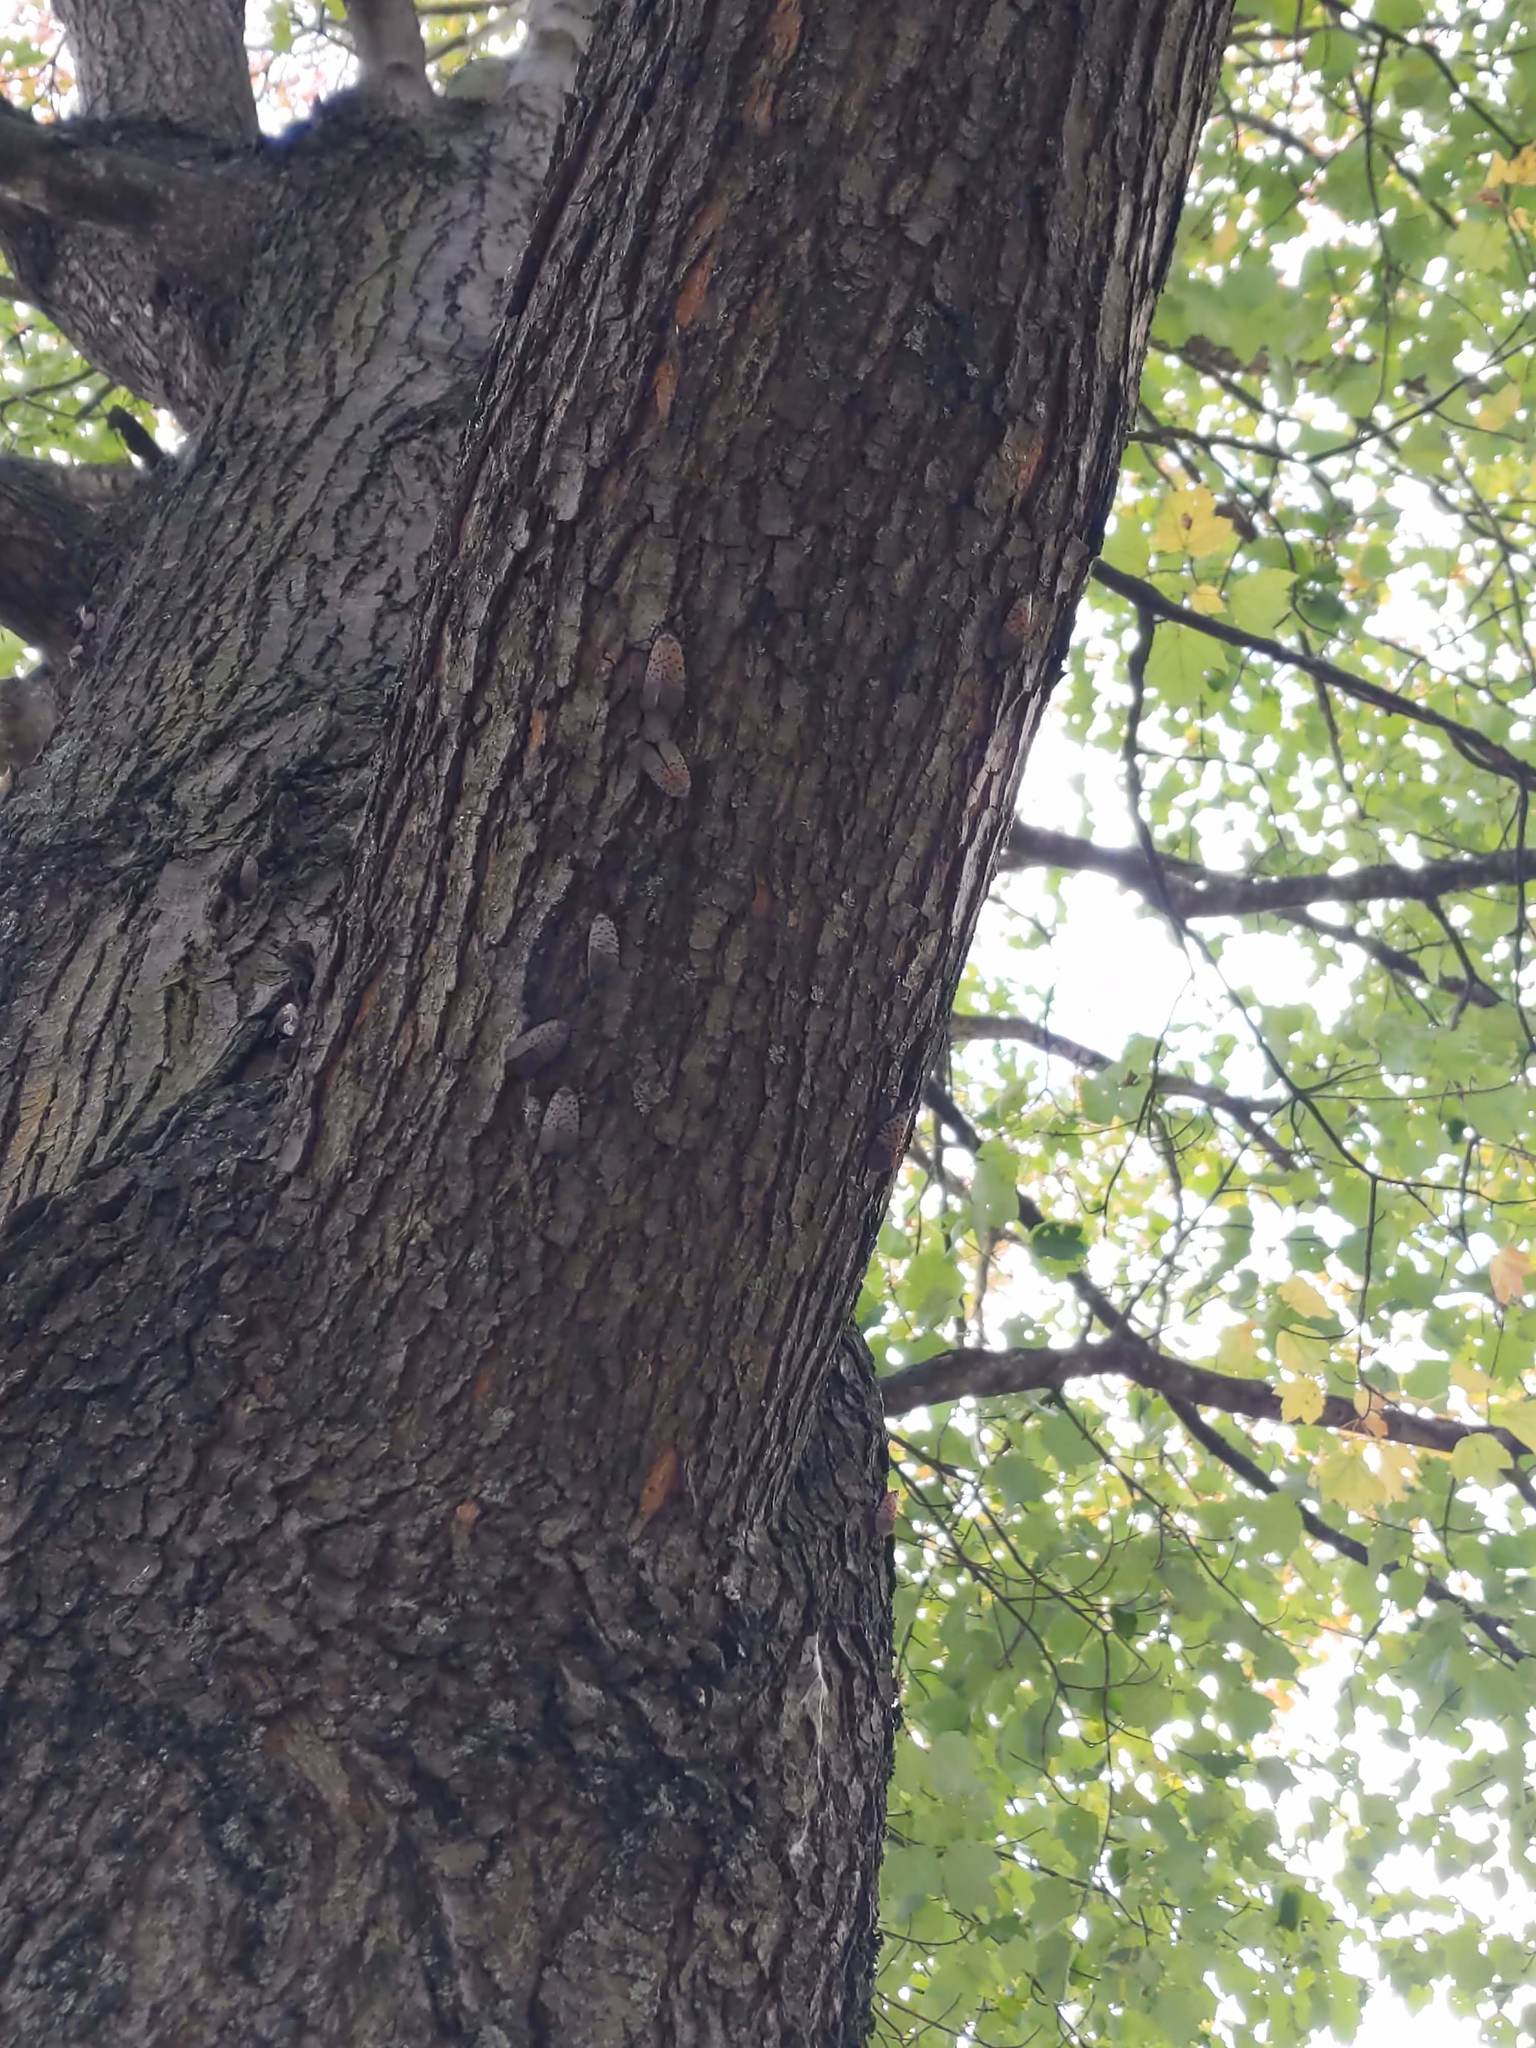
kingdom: Animalia
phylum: Arthropoda
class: Insecta
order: Hemiptera
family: Fulgoridae
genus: Lycorma
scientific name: Lycorma delicatula
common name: Spotted lanternfly
